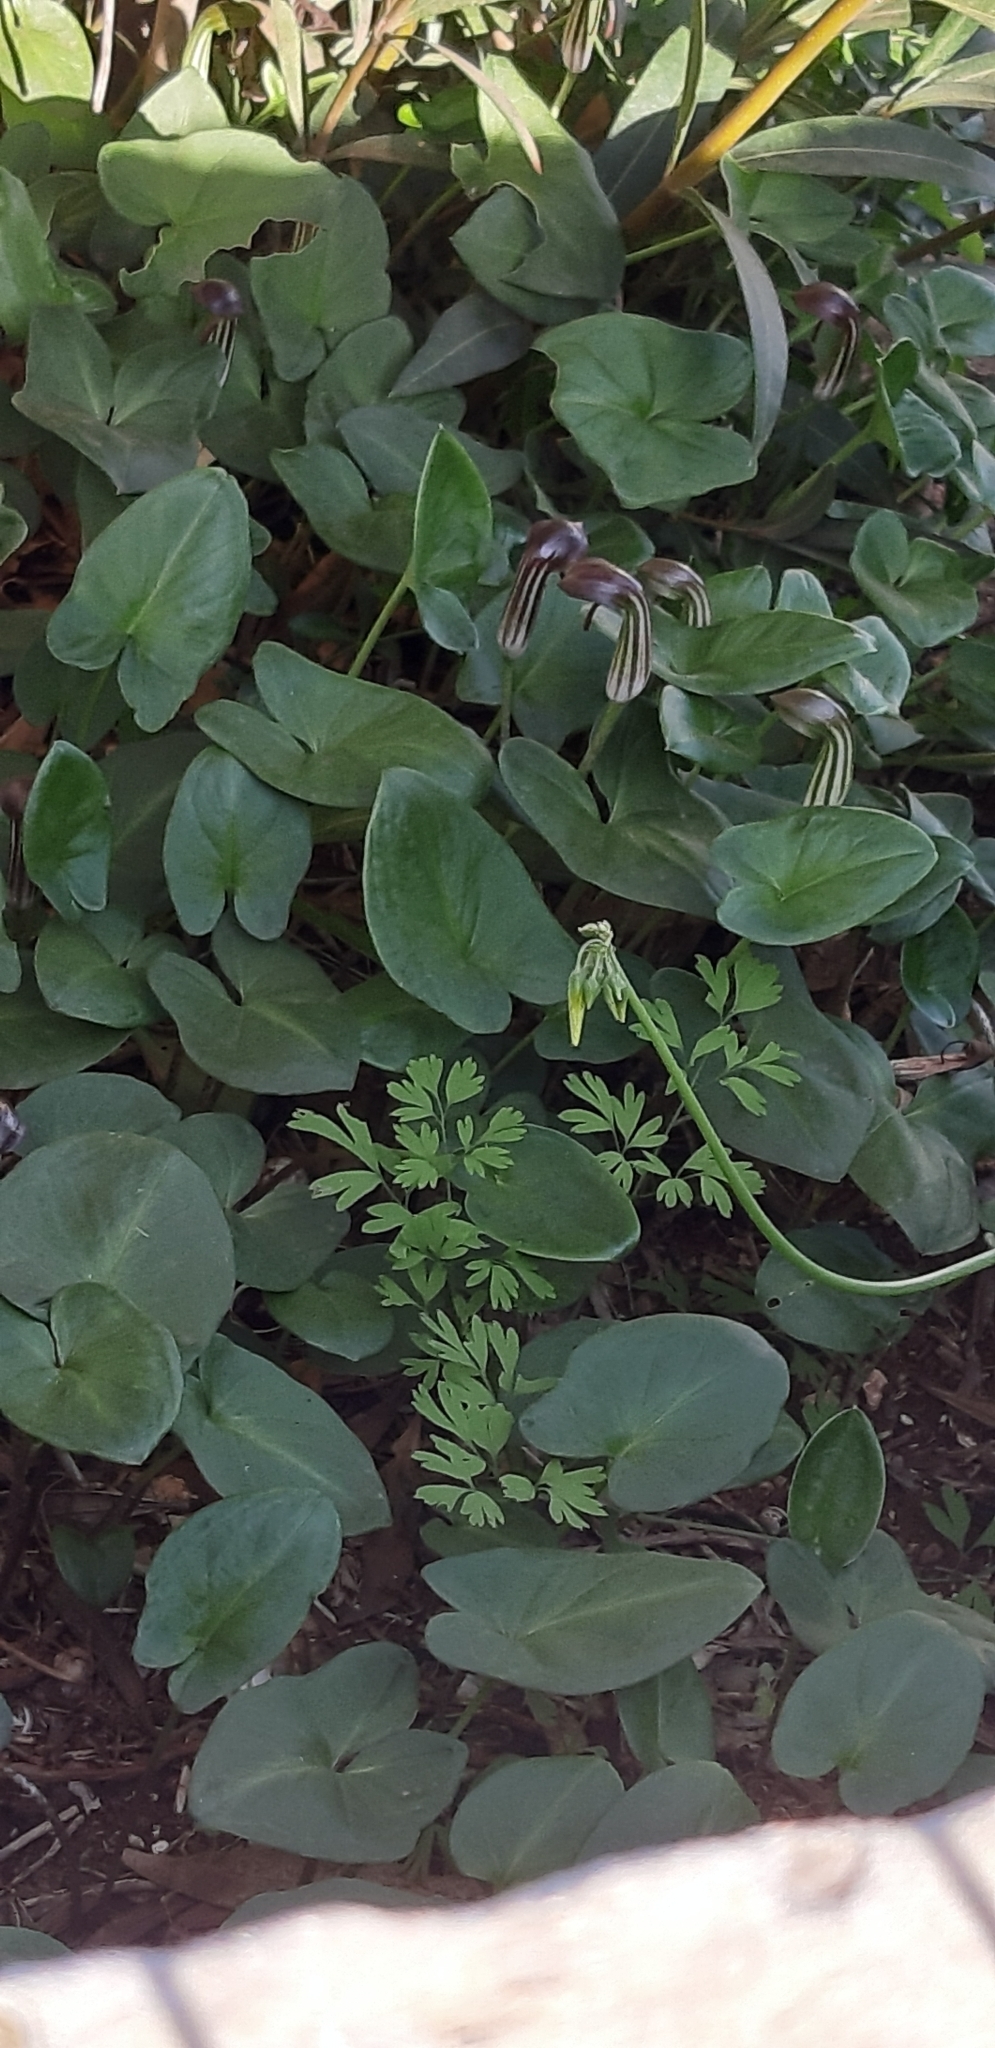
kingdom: Plantae
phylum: Tracheophyta
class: Liliopsida
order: Alismatales
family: Araceae
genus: Arisarum
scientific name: Arisarum vulgare
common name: Common arisarum
